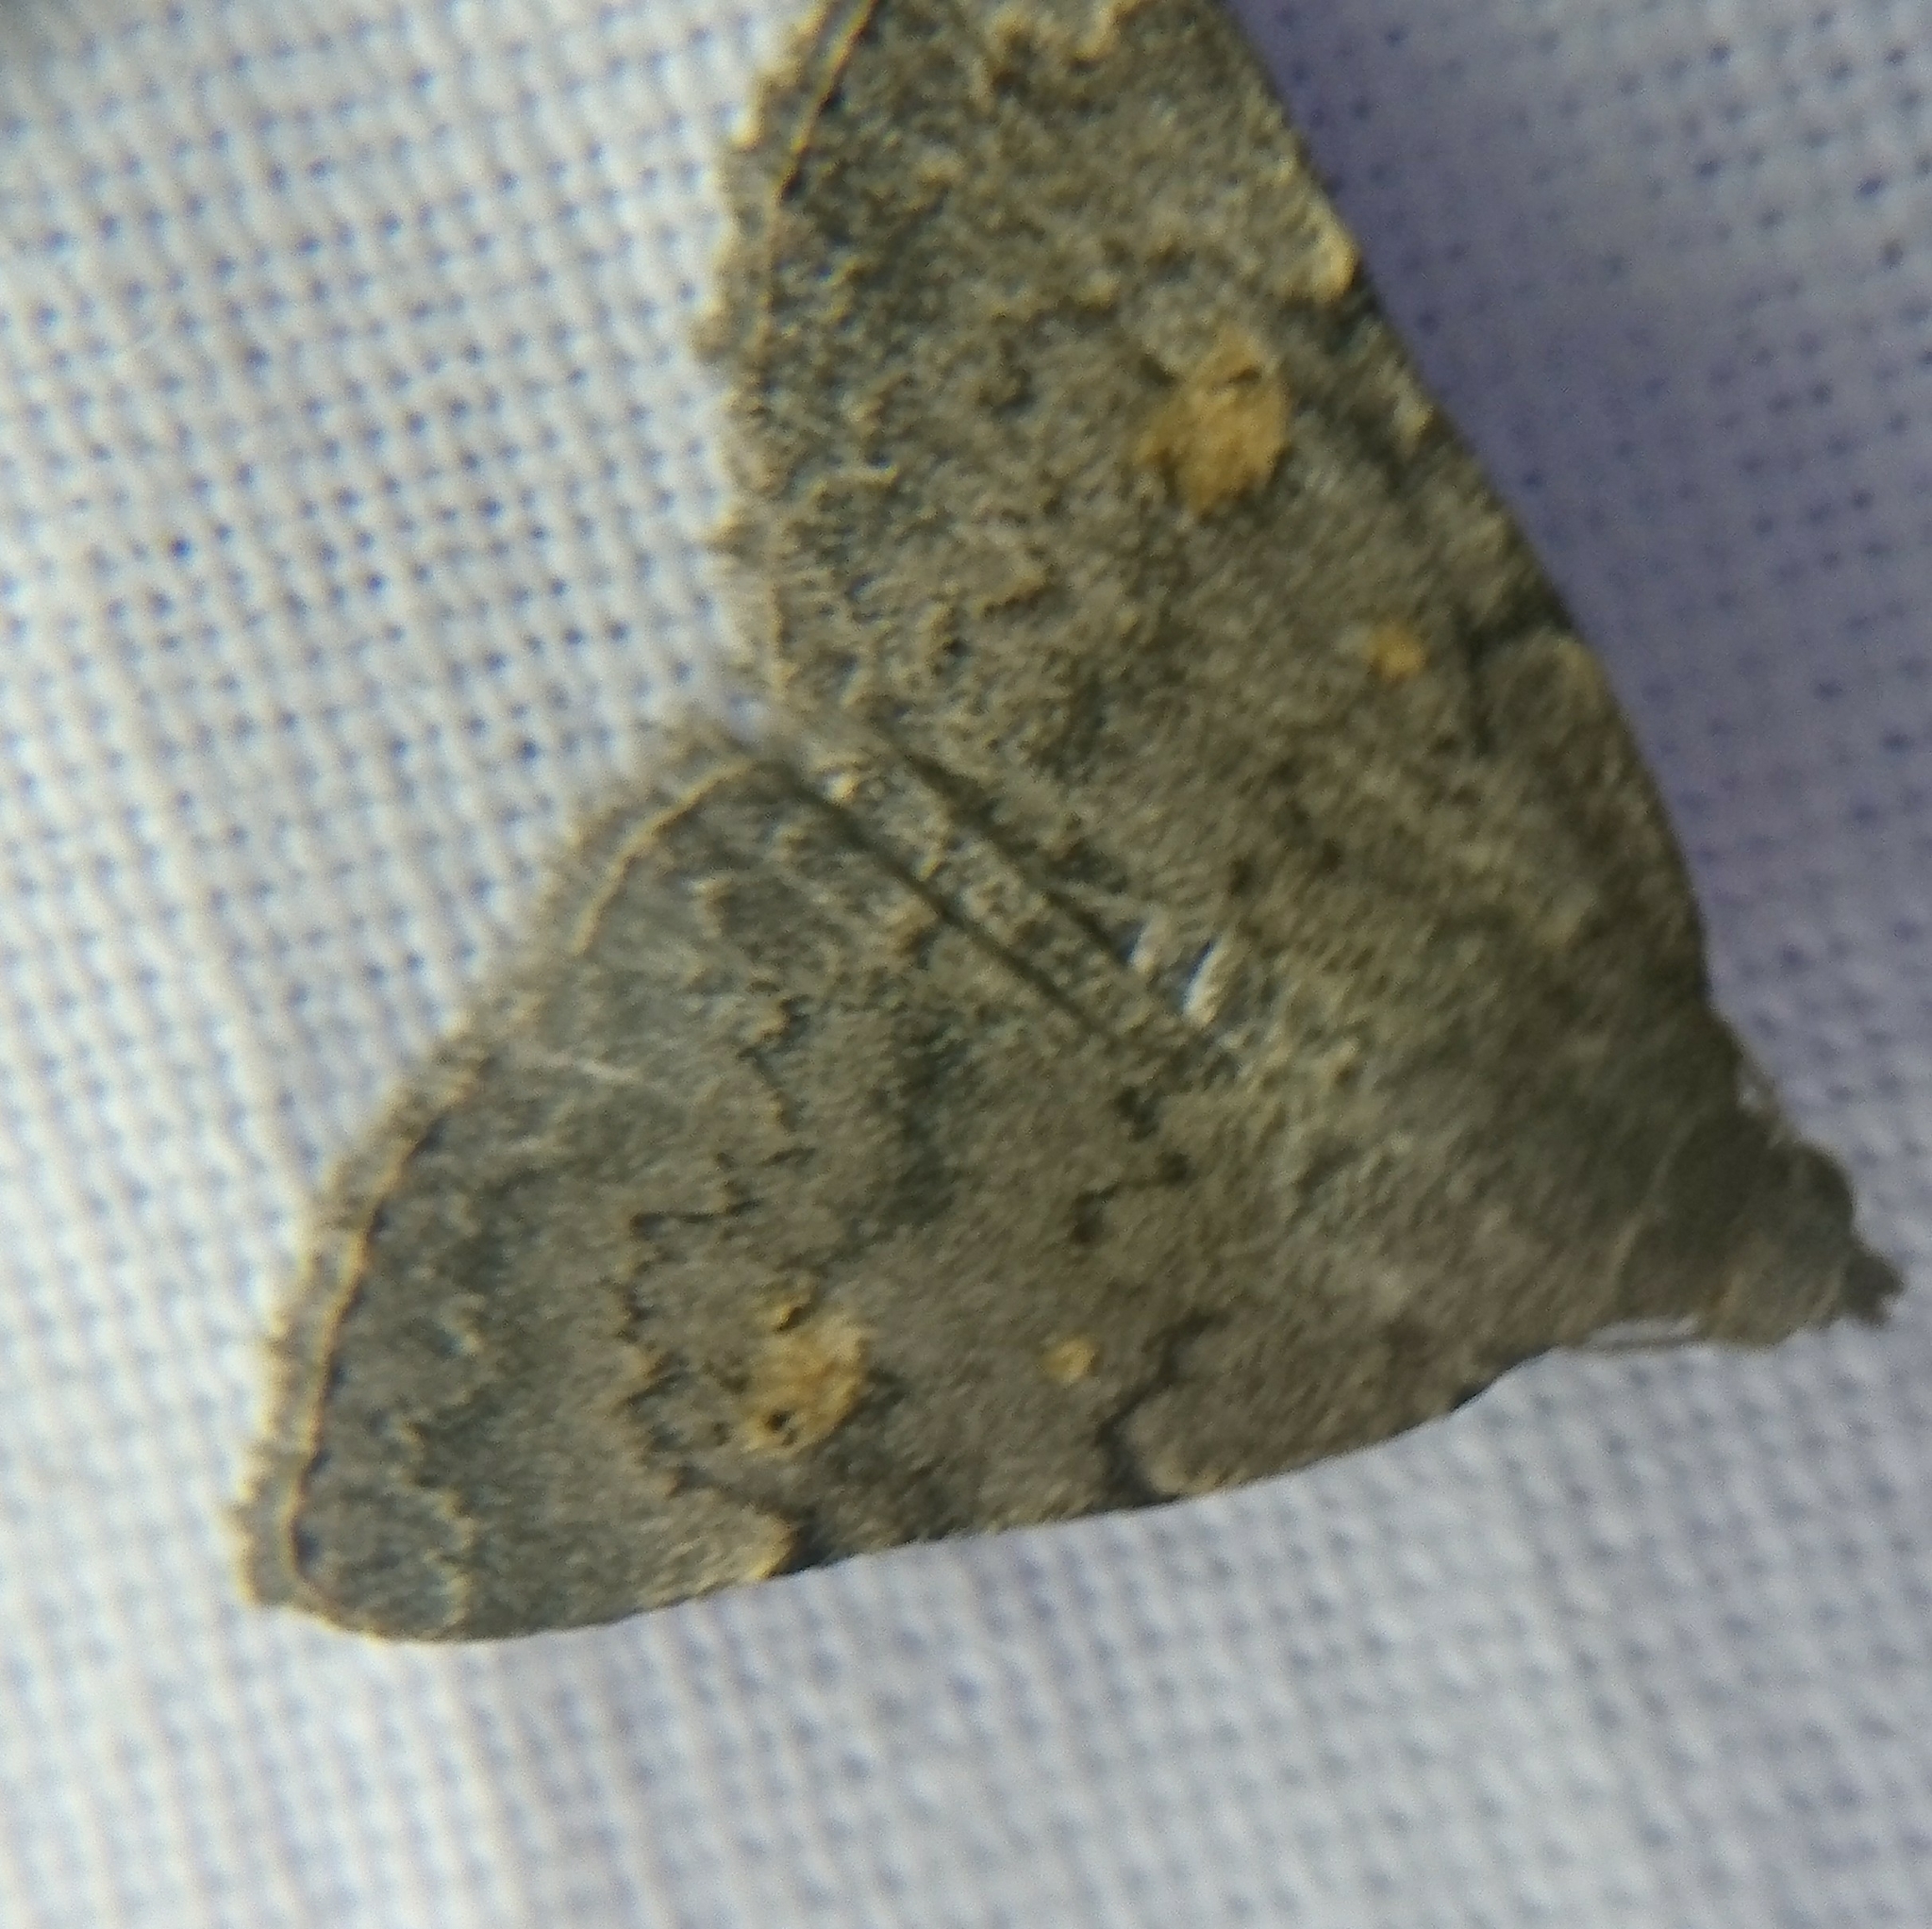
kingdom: Animalia
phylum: Arthropoda
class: Insecta
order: Lepidoptera
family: Erebidae
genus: Idia
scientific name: Idia aemula
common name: Common idia moth
